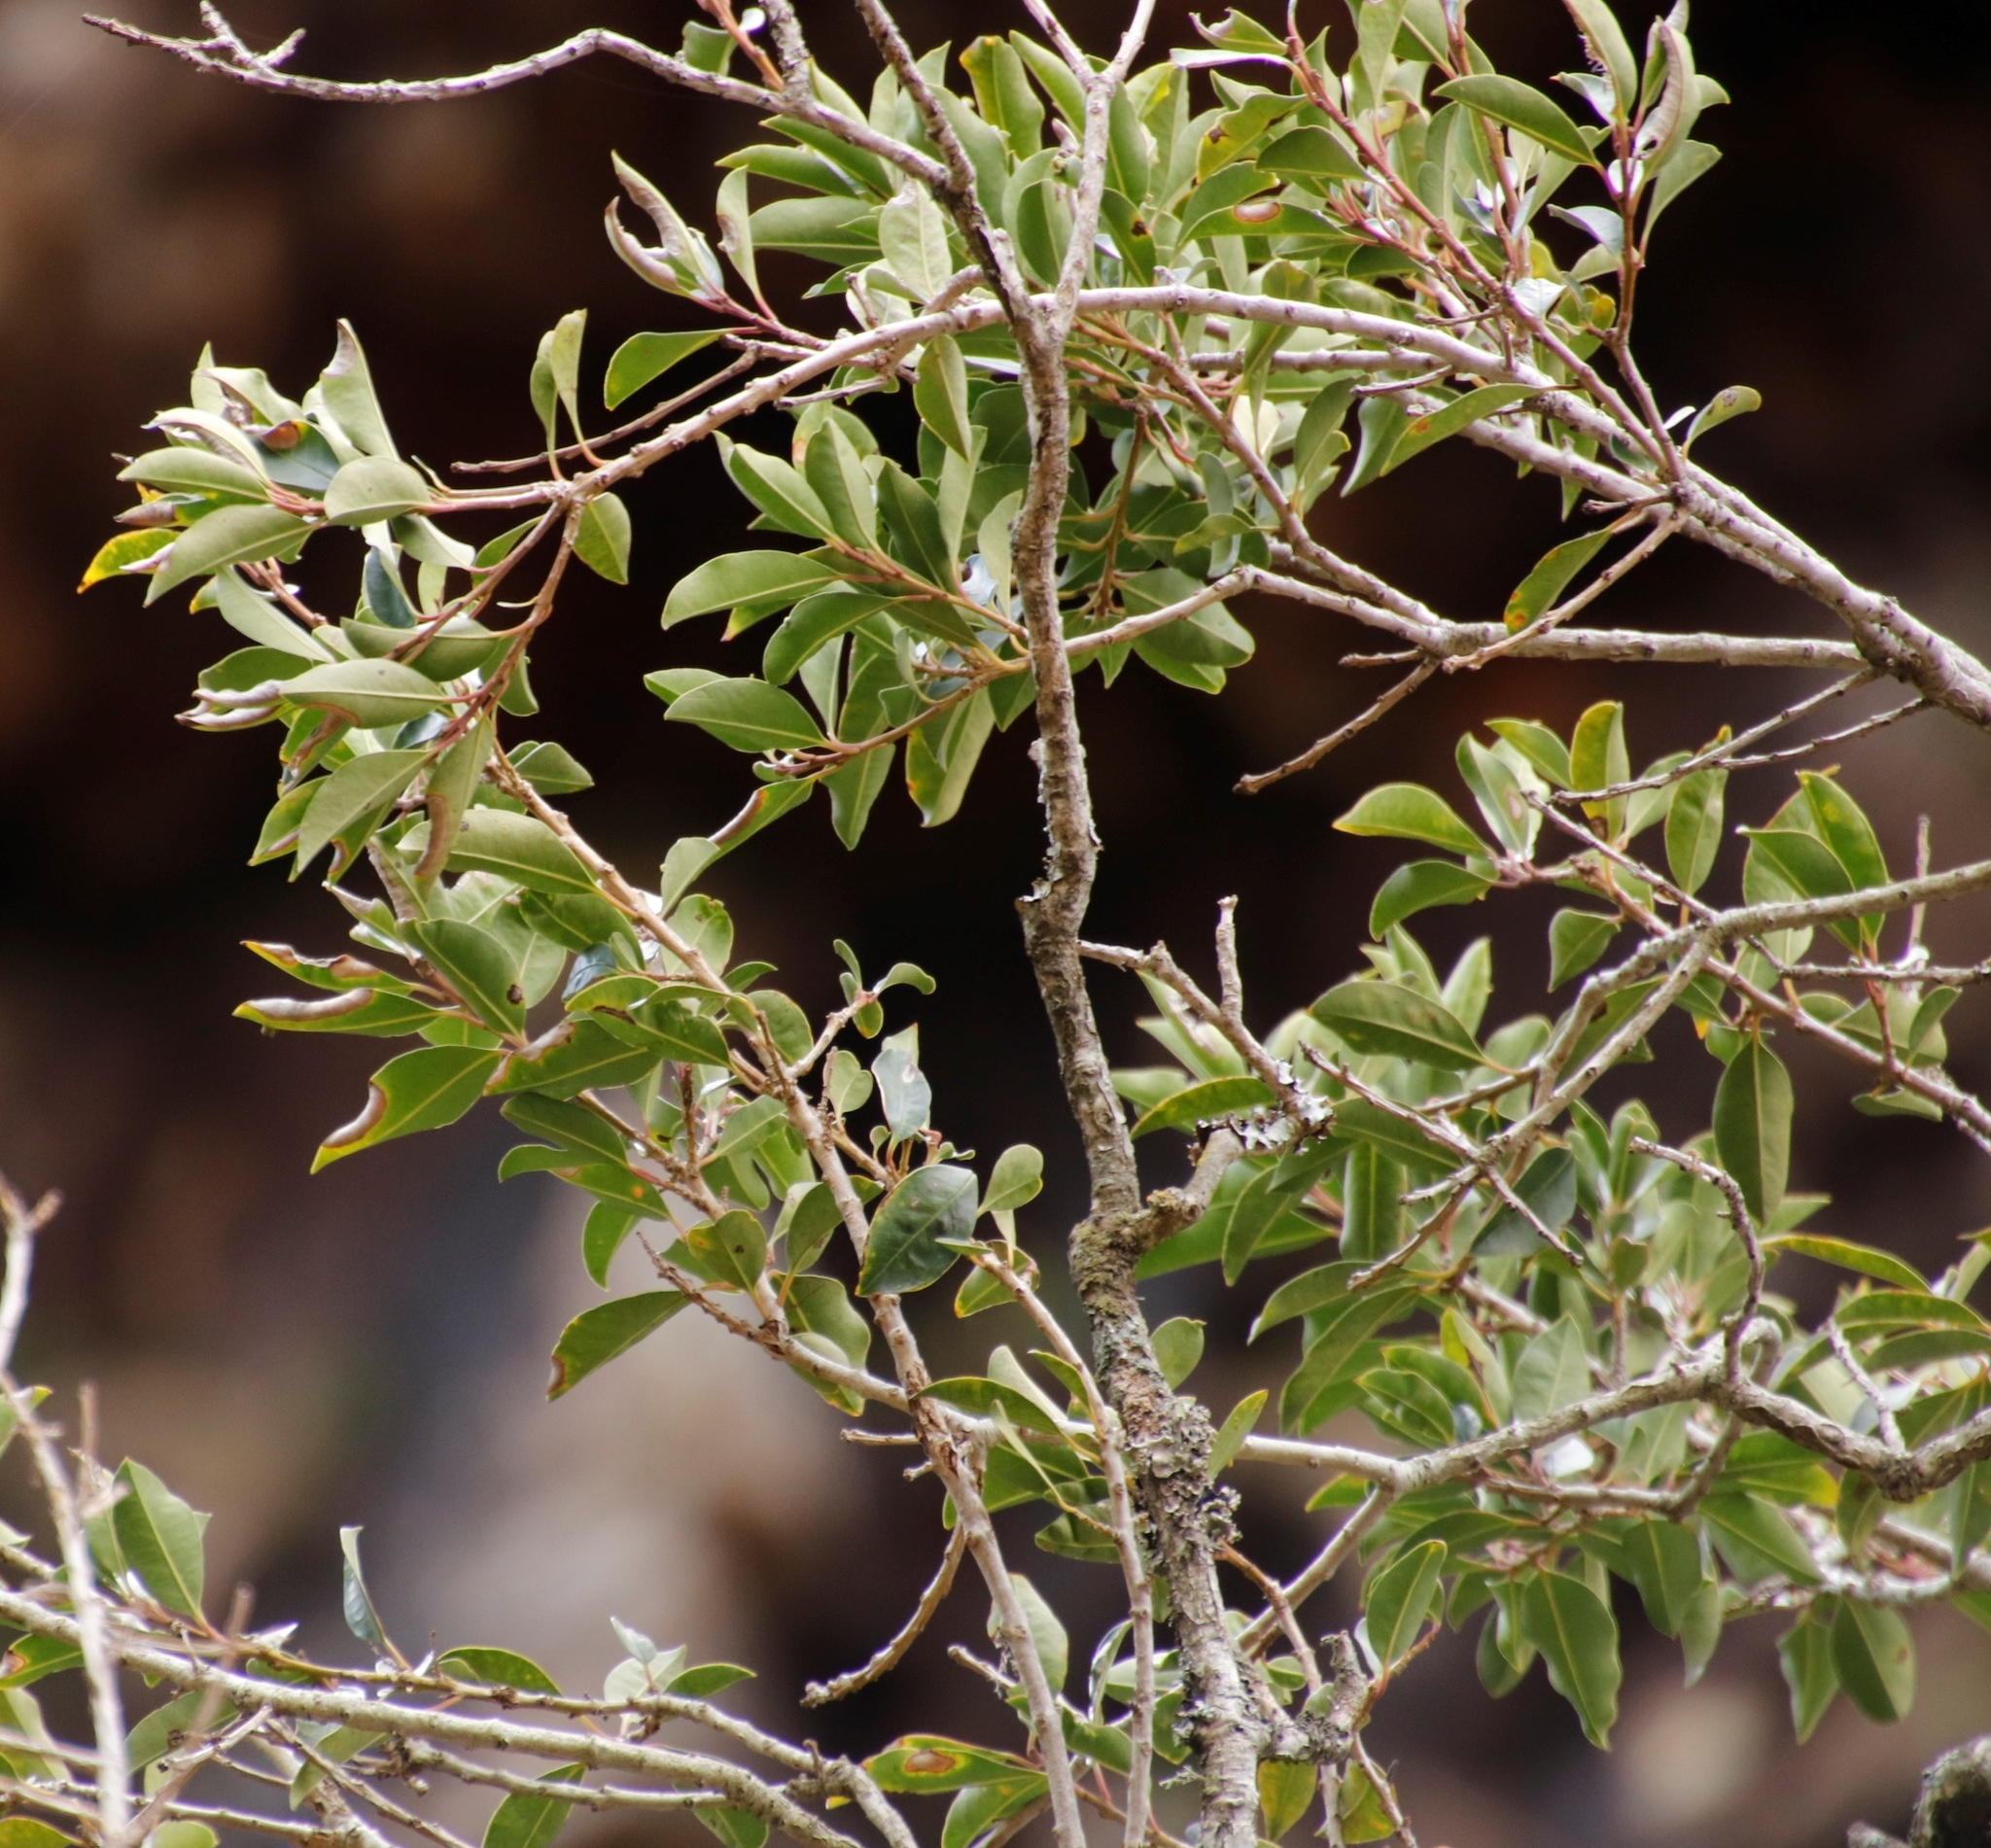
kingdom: Plantae
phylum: Tracheophyta
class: Magnoliopsida
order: Aquifoliales
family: Aquifoliaceae
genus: Ilex
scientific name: Ilex mitis
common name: African holly
